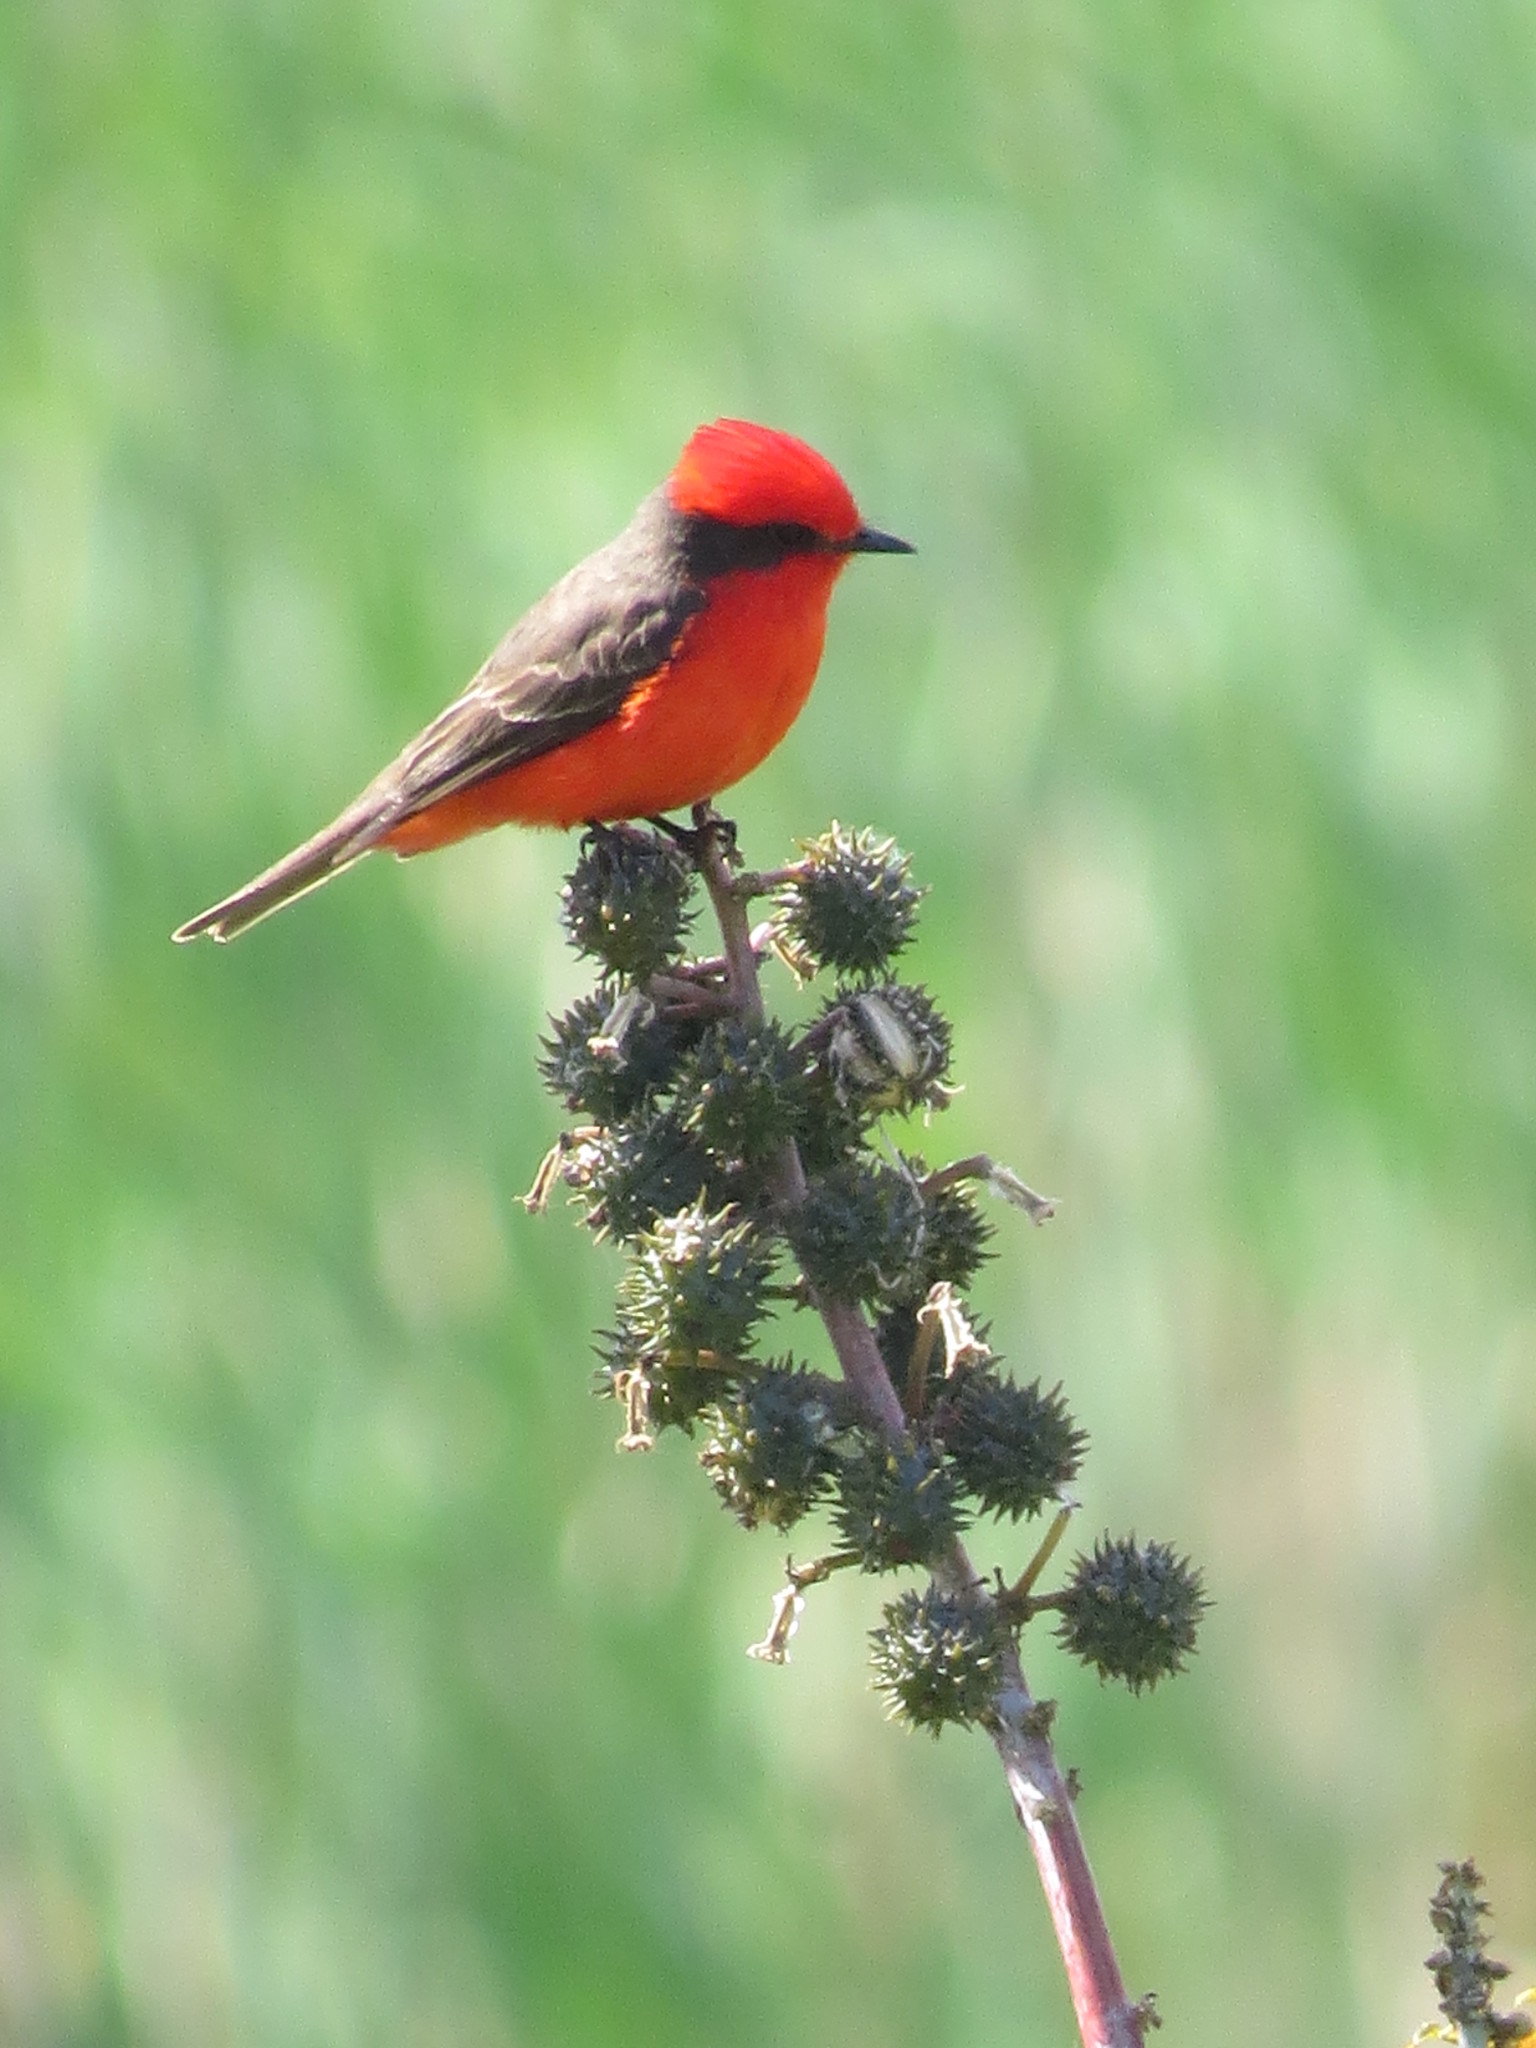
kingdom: Animalia
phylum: Chordata
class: Aves
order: Passeriformes
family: Tyrannidae
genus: Pyrocephalus
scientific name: Pyrocephalus rubinus
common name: Vermilion flycatcher
